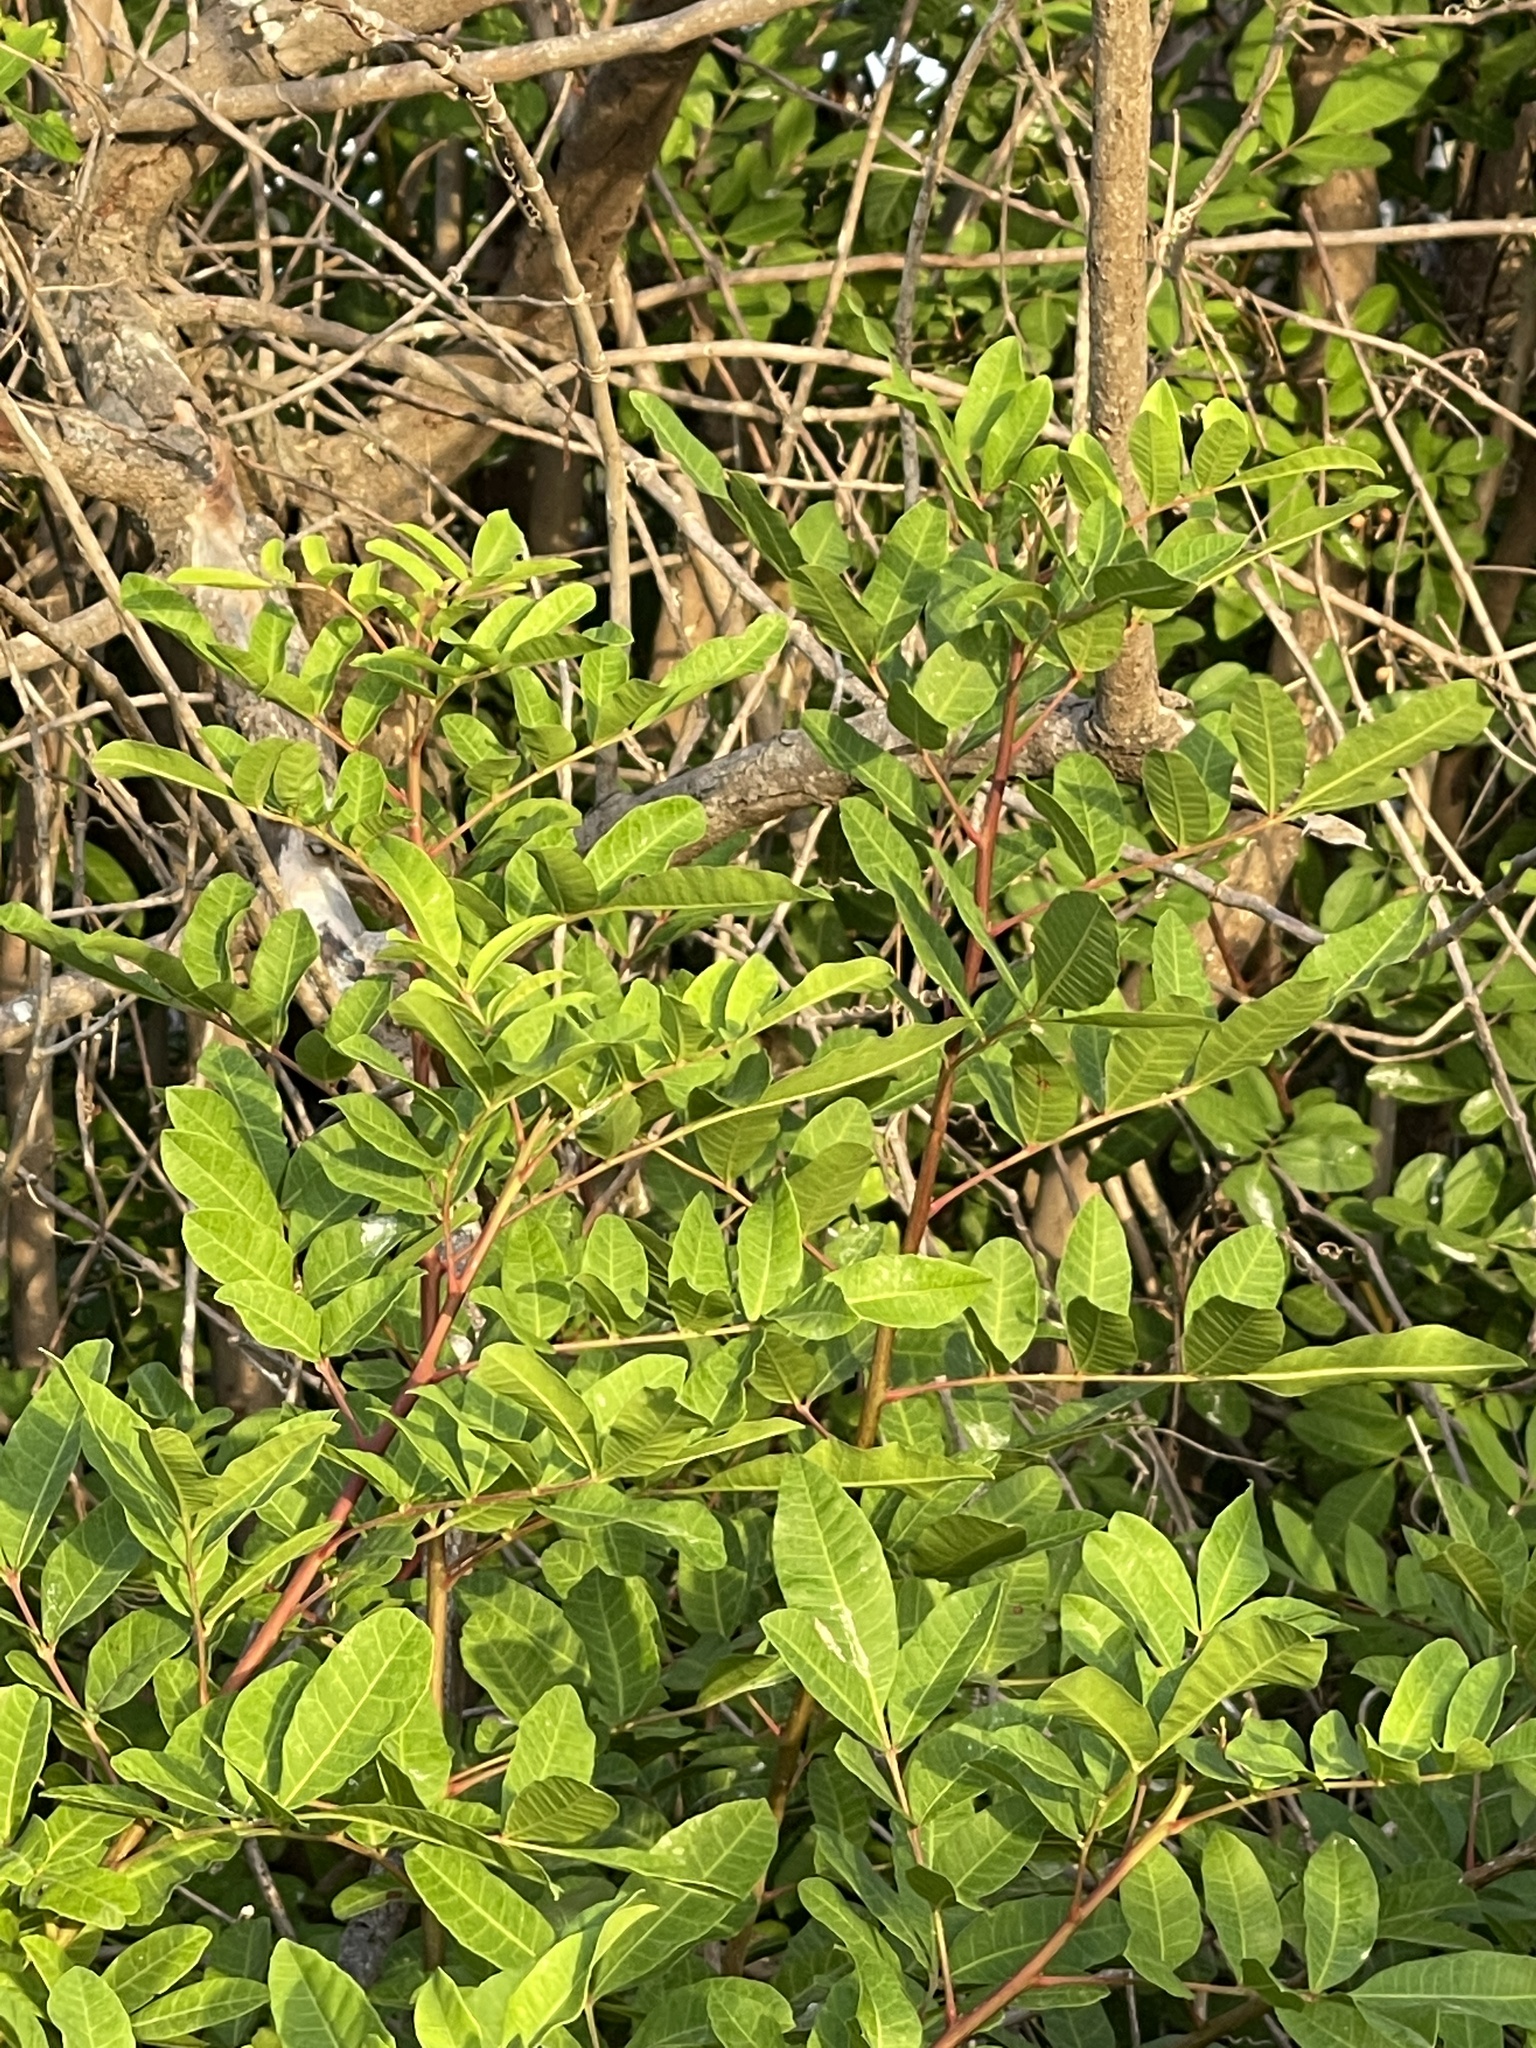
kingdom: Plantae
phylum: Tracheophyta
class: Magnoliopsida
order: Sapindales
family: Anacardiaceae
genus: Schinus
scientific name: Schinus terebinthifolia
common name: Brazilian peppertree
